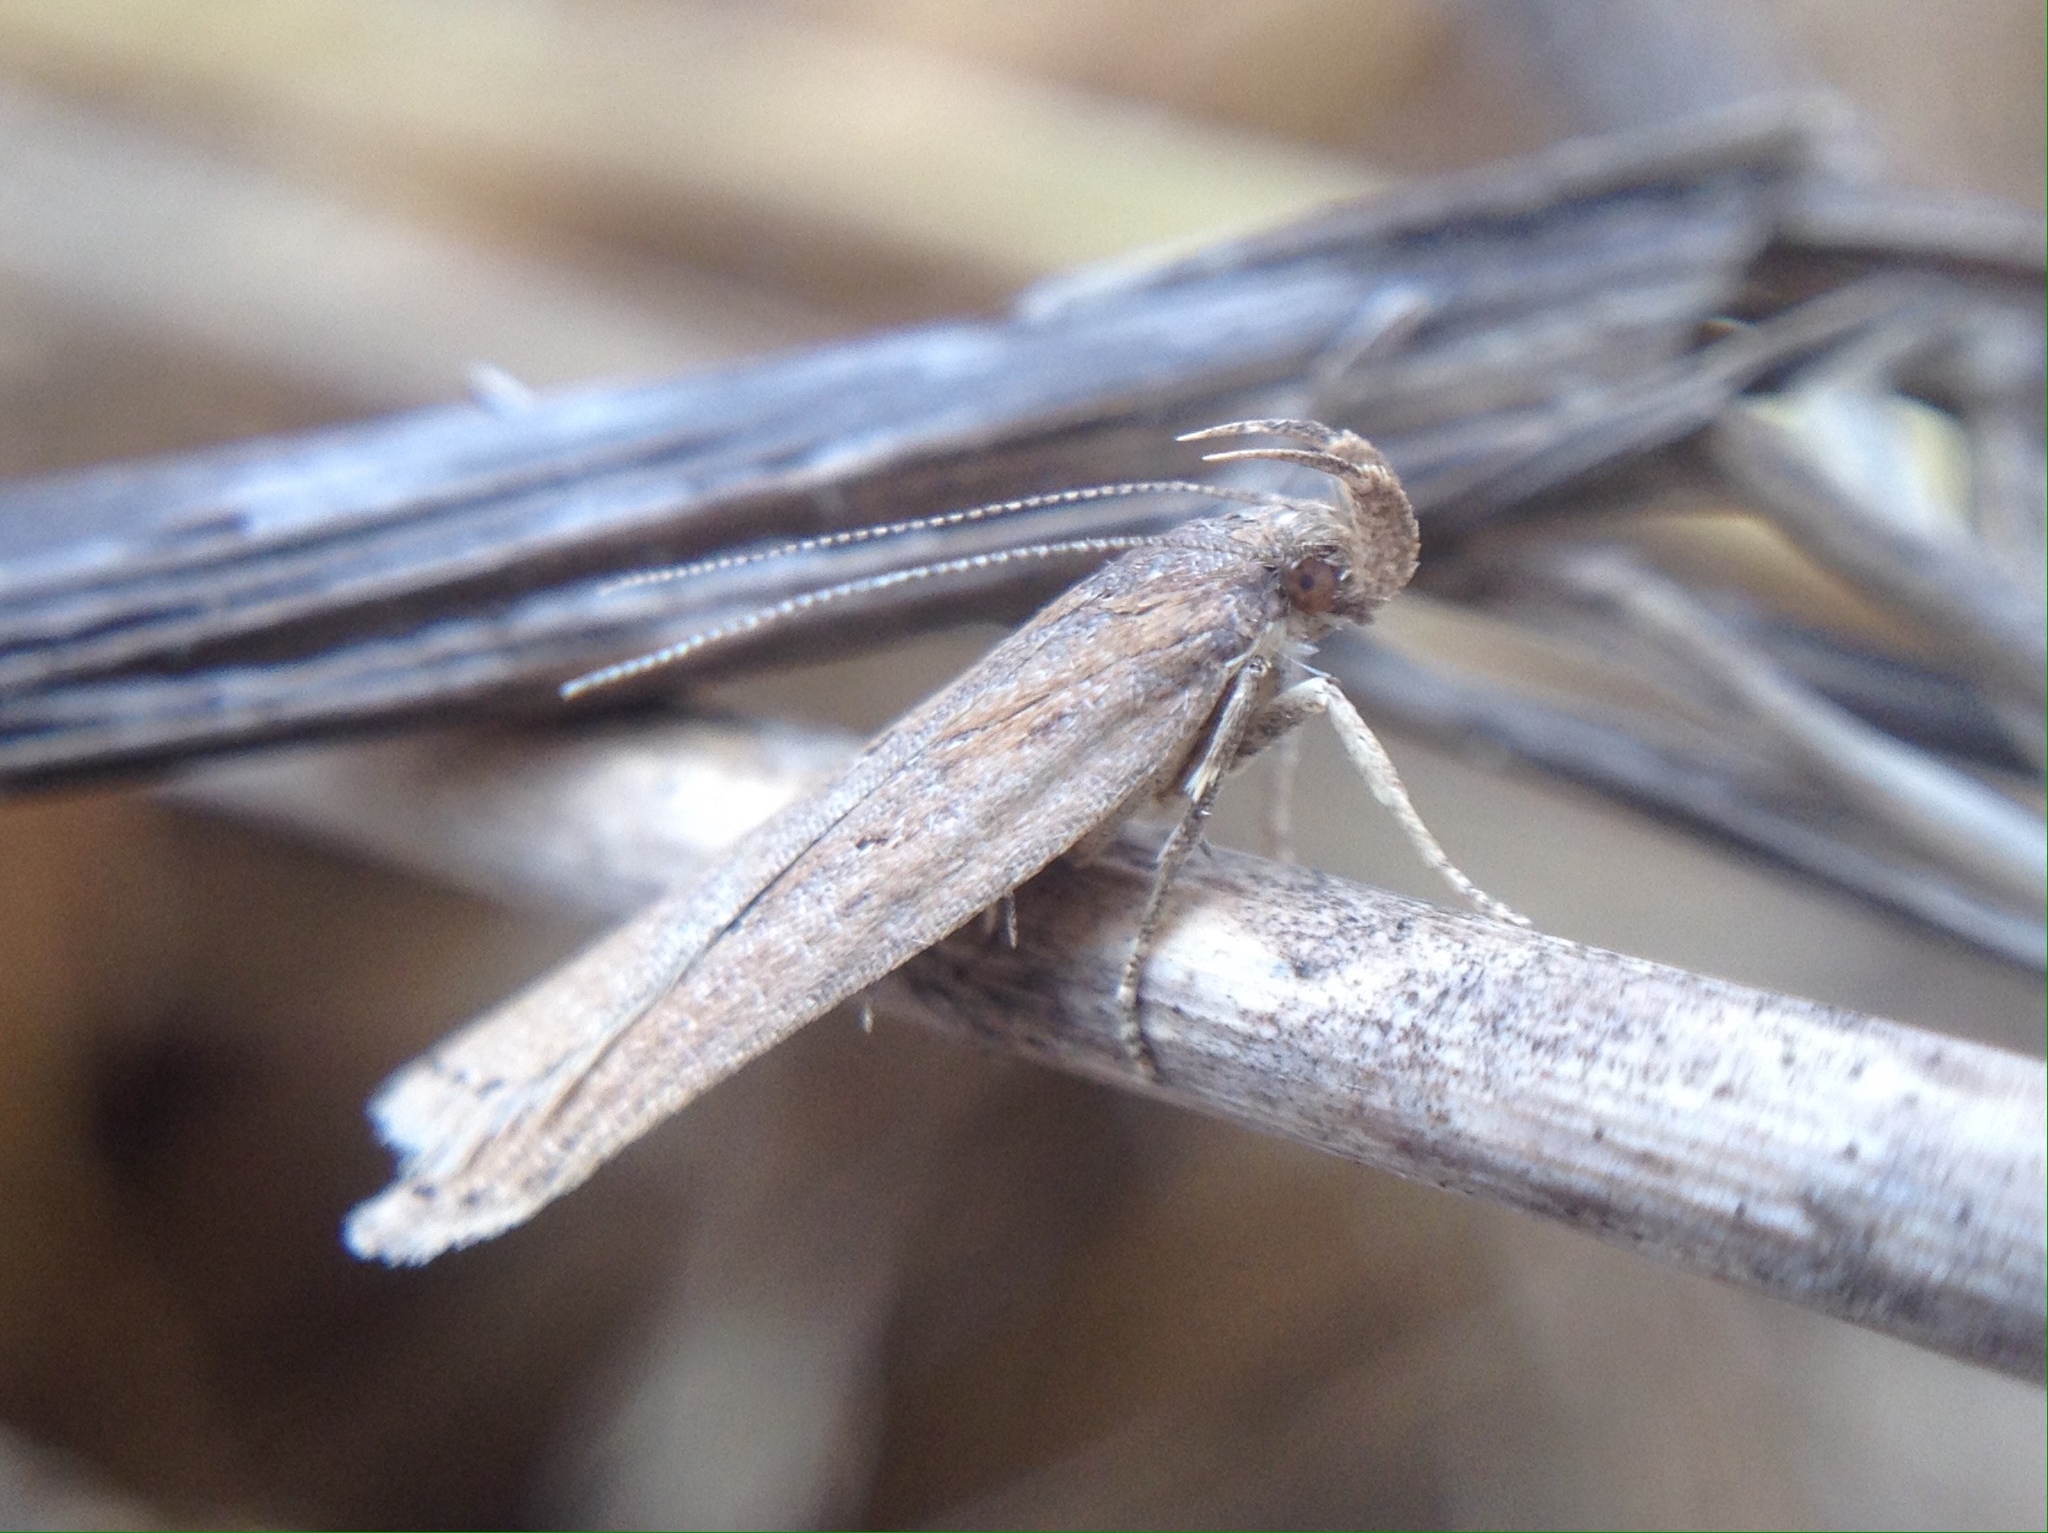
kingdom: Animalia
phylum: Arthropoda
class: Insecta
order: Lepidoptera
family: Gelechiidae
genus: Helcystogramma
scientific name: Helcystogramma triannulella
